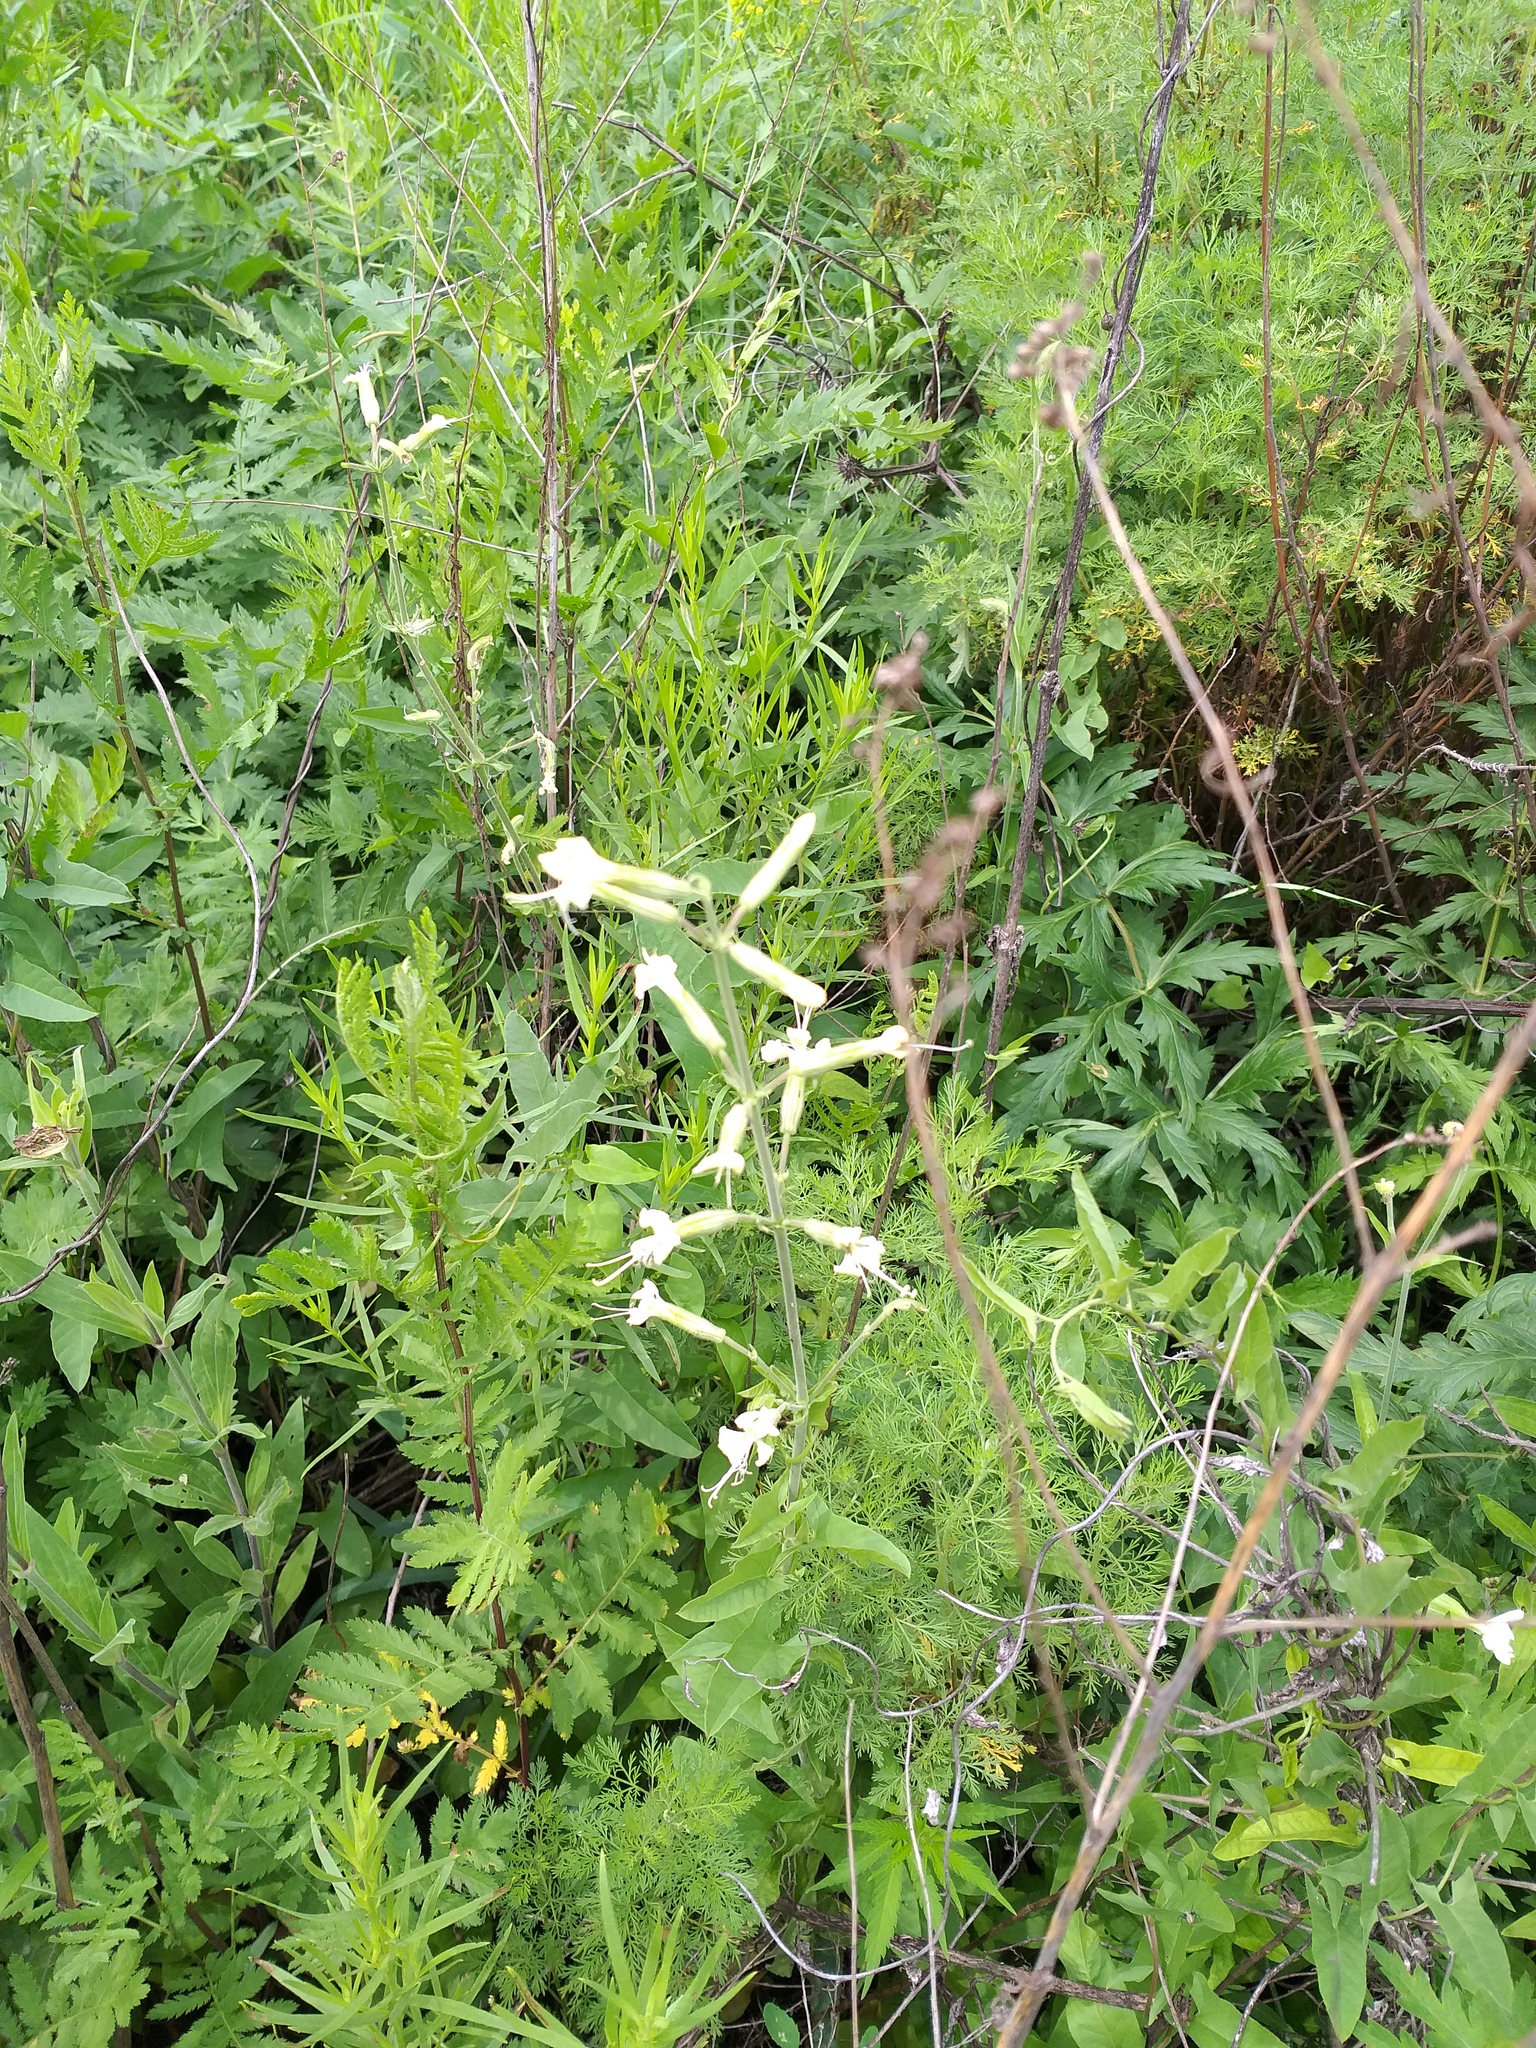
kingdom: Plantae
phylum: Tracheophyta
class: Magnoliopsida
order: Caryophyllales
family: Caryophyllaceae
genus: Silene
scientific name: Silene viscosa
